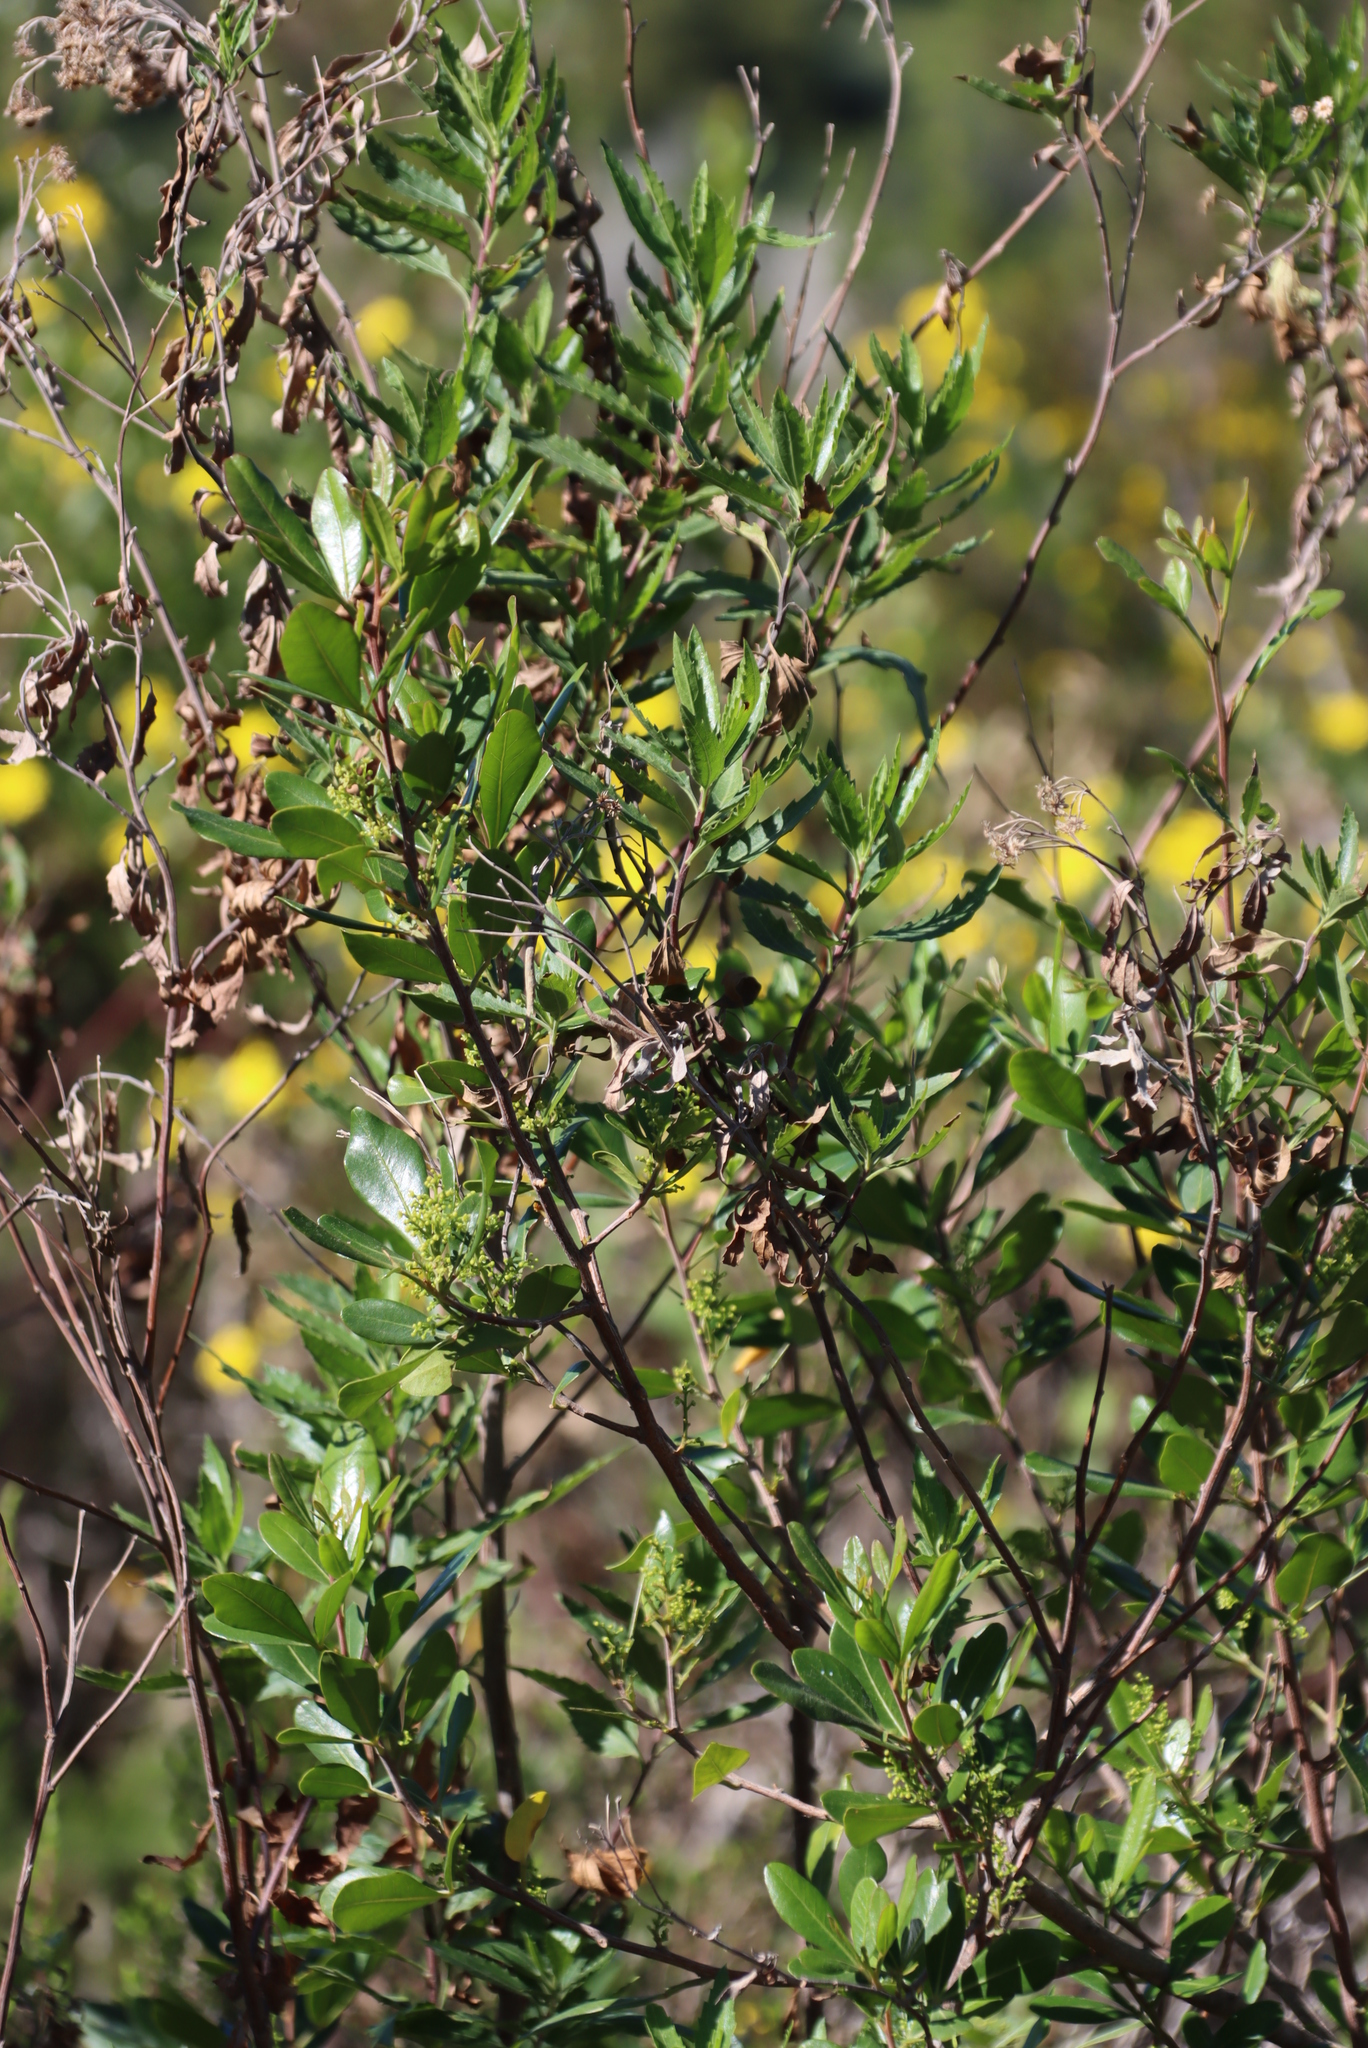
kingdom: Plantae
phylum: Tracheophyta
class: Magnoliopsida
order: Asterales
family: Asteraceae
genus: Nidorella
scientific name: Nidorella ivifolia
